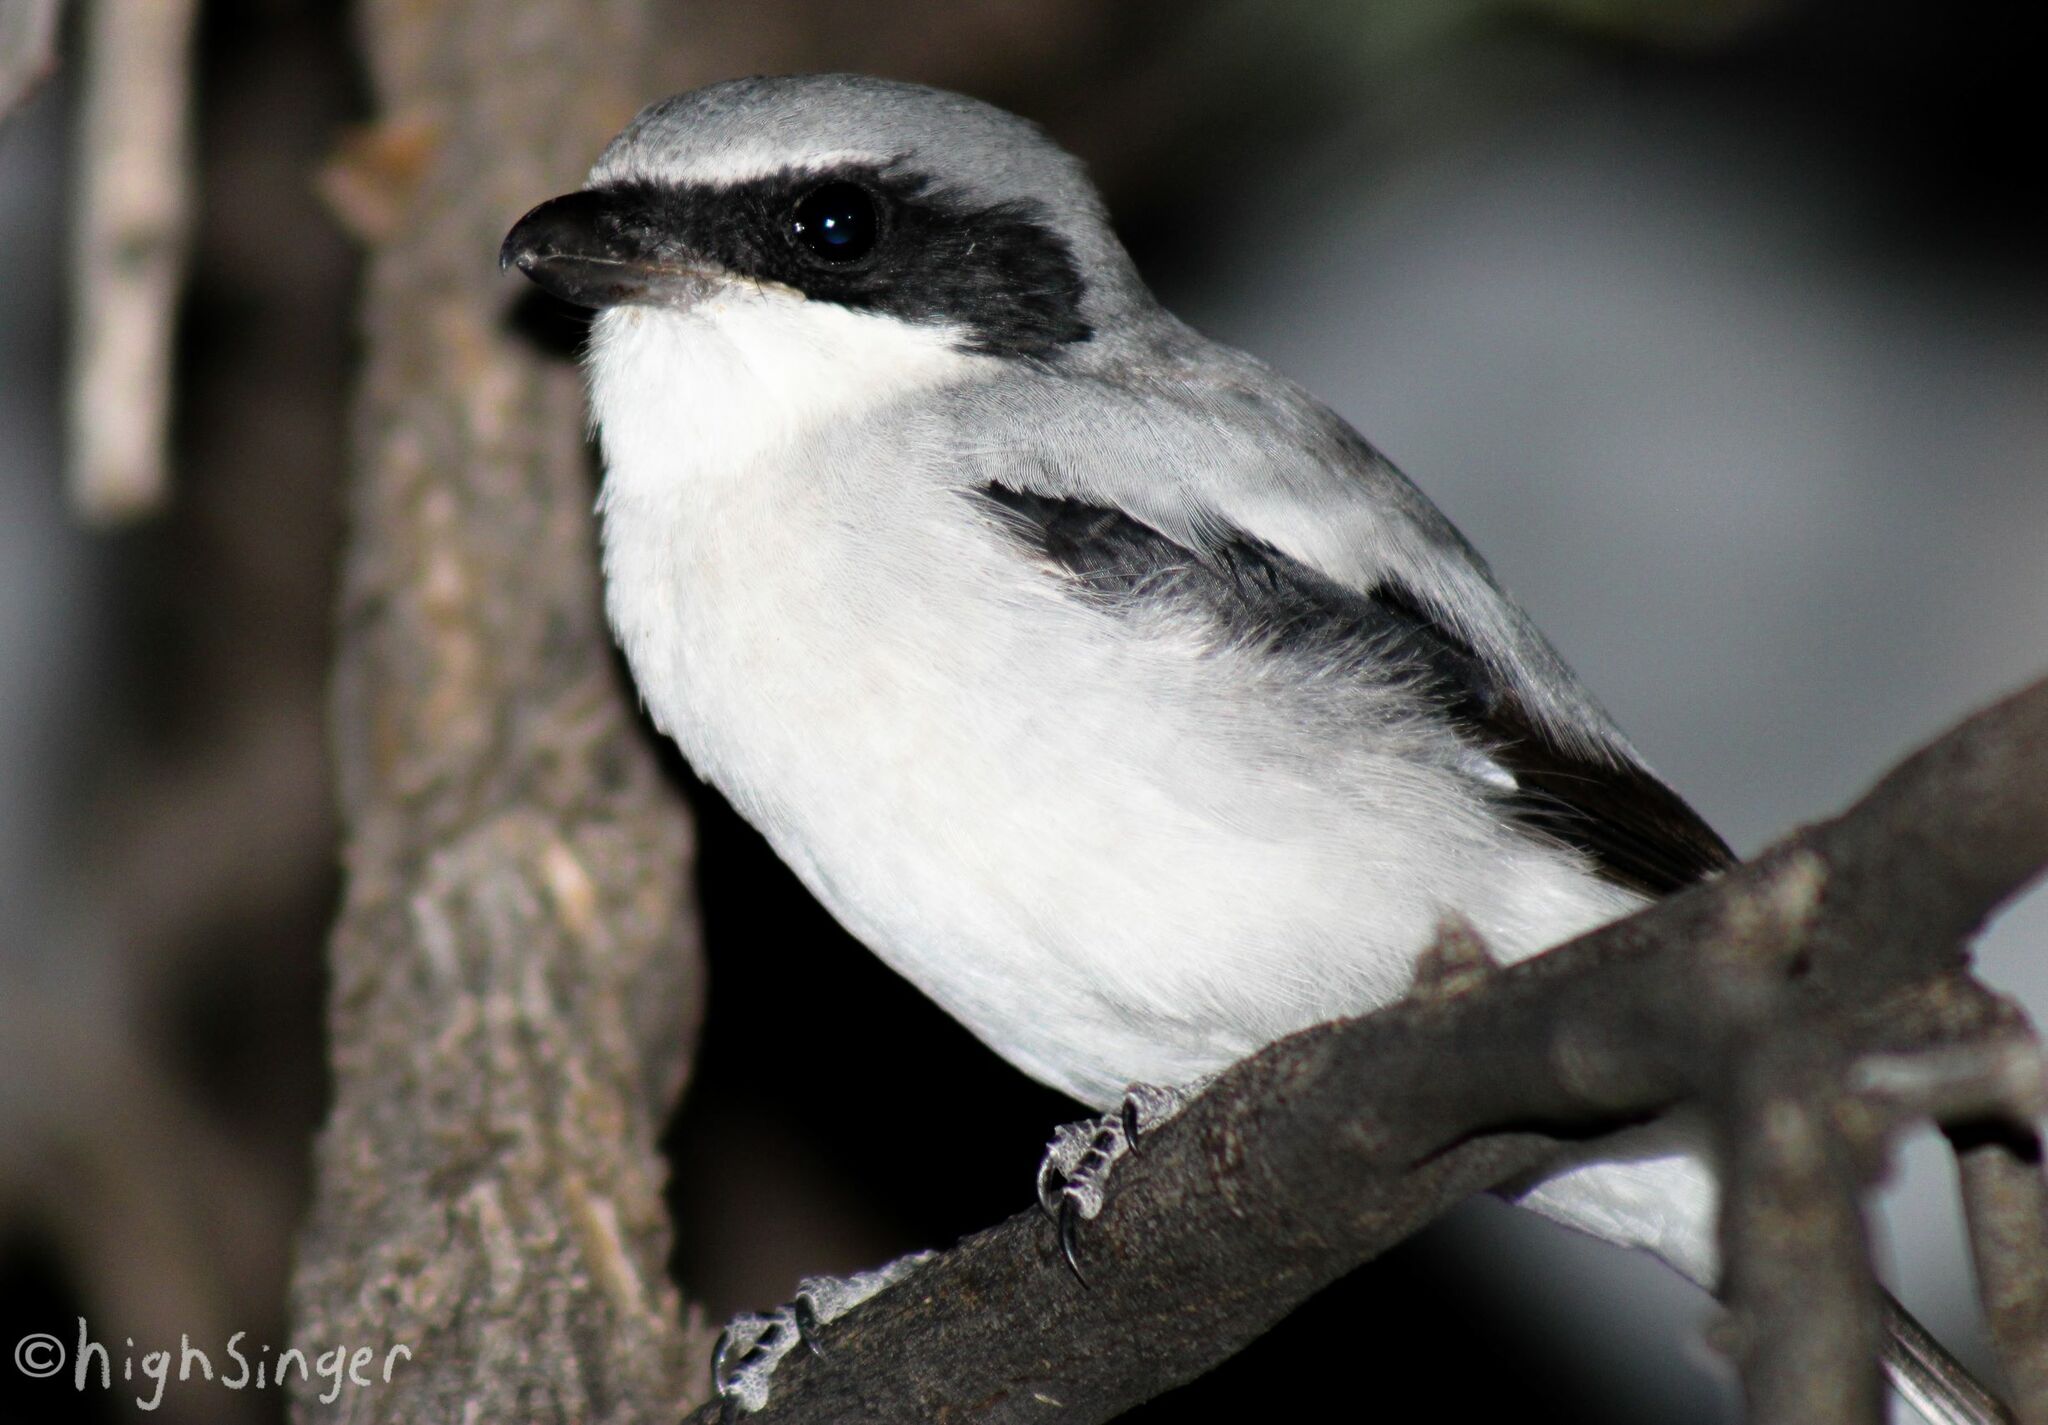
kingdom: Animalia
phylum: Chordata
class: Aves
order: Passeriformes
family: Laniidae
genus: Lanius
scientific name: Lanius ludovicianus
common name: Loggerhead shrike
